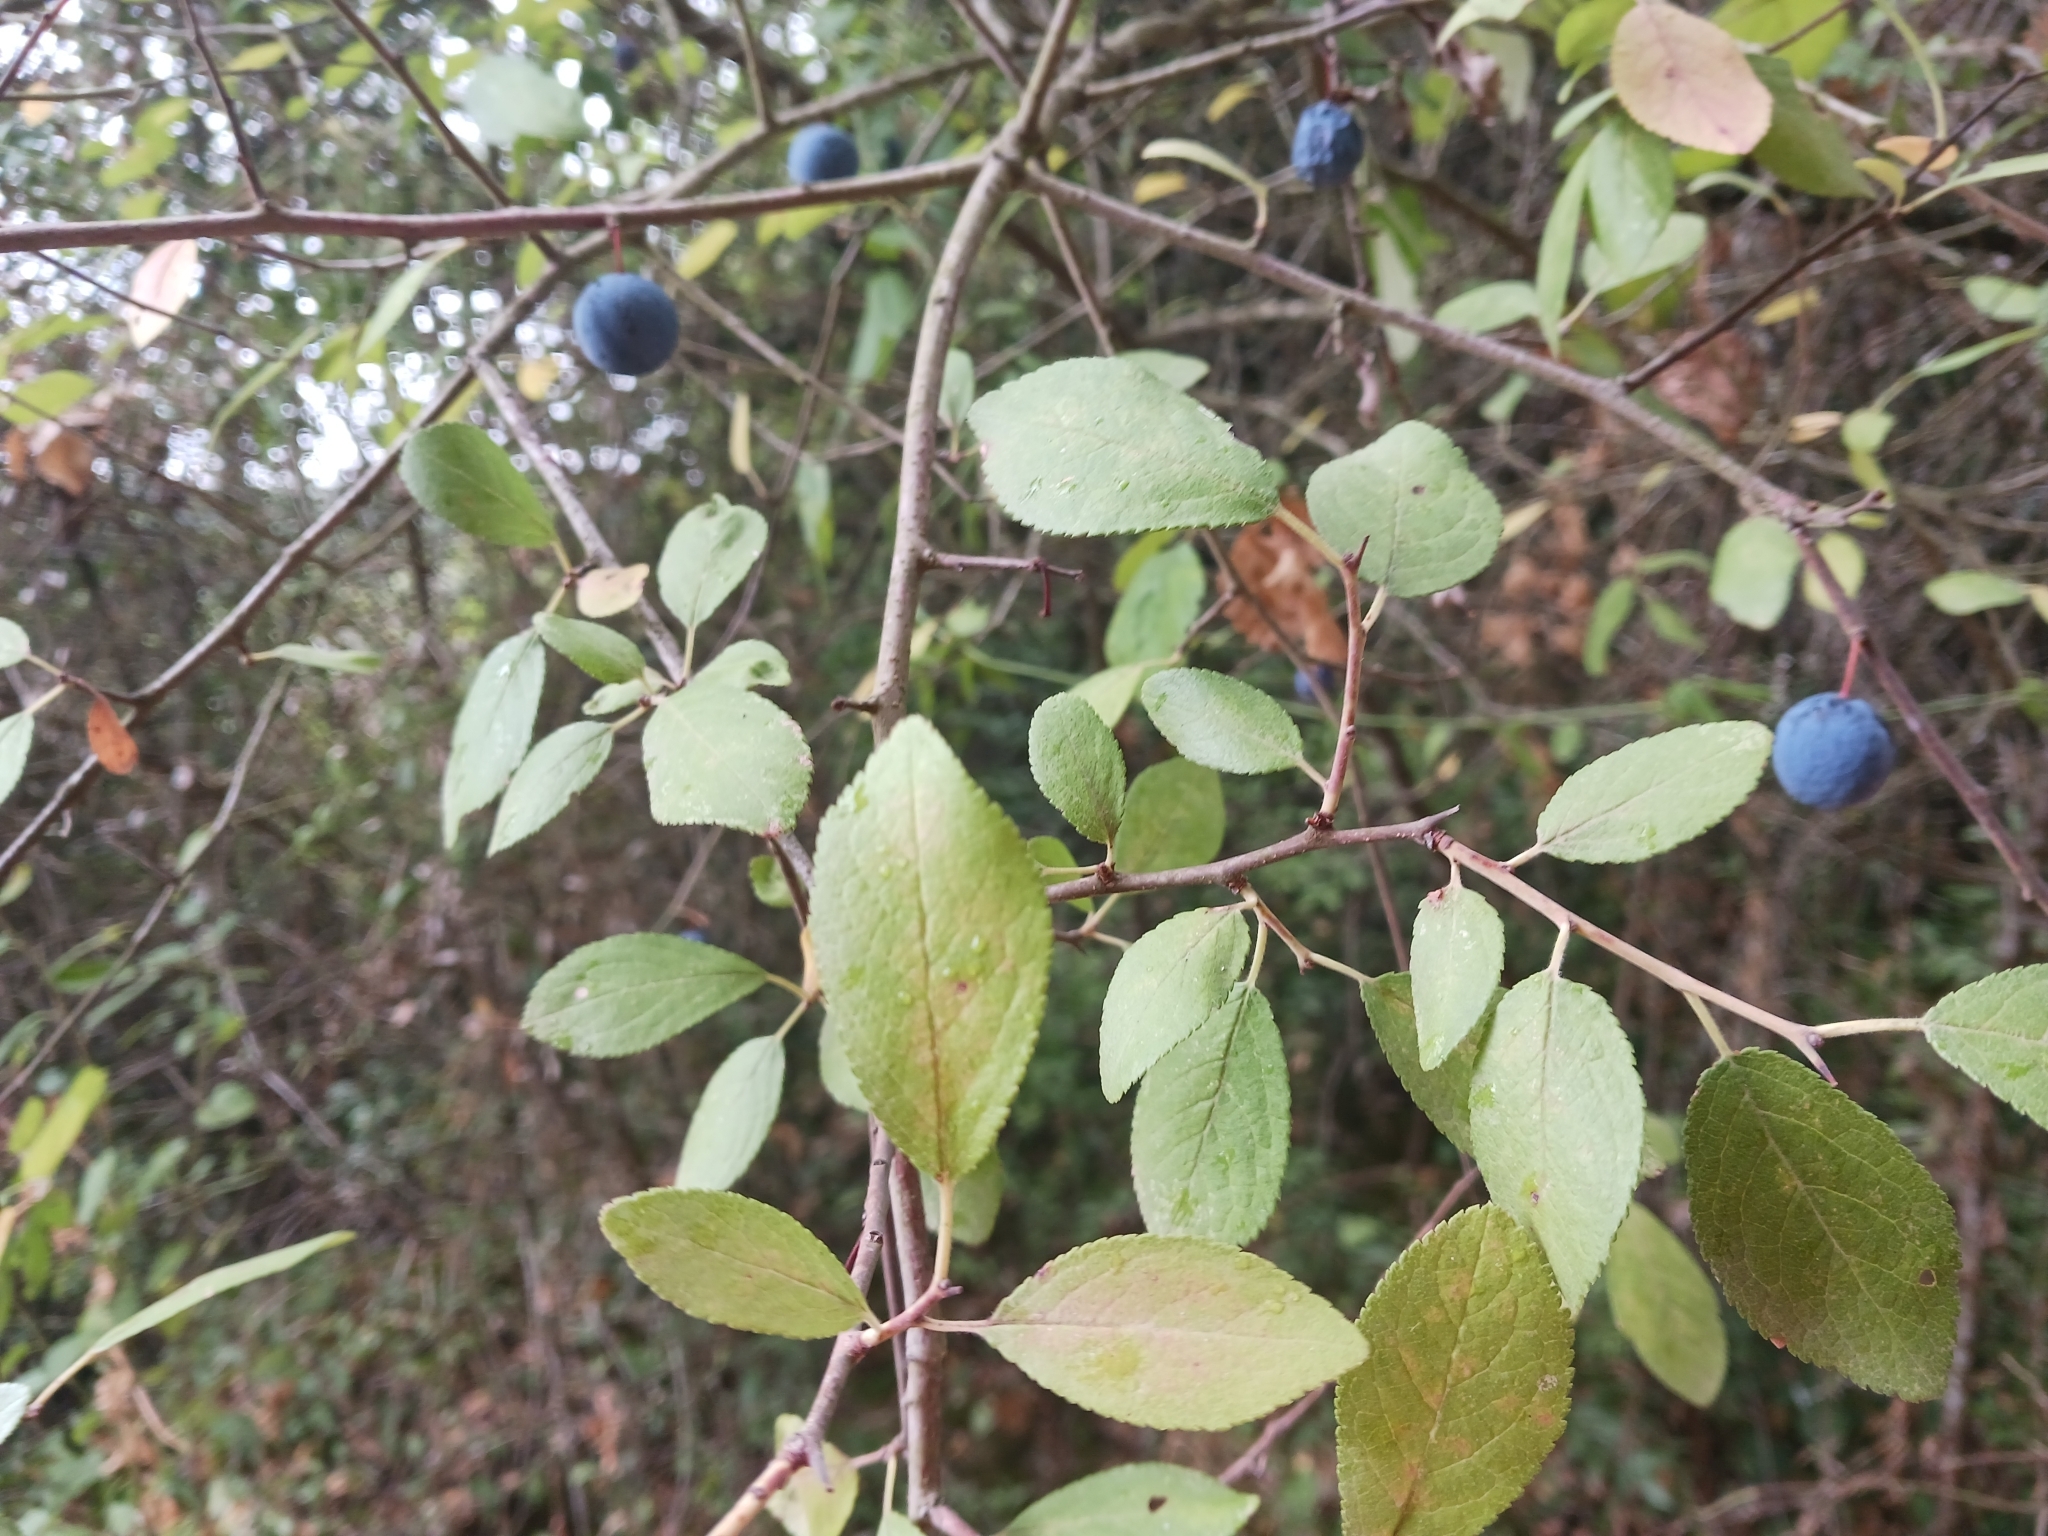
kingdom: Plantae
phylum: Tracheophyta
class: Magnoliopsida
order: Rosales
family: Rosaceae
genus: Prunus
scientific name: Prunus spinosa
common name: Blackthorn
